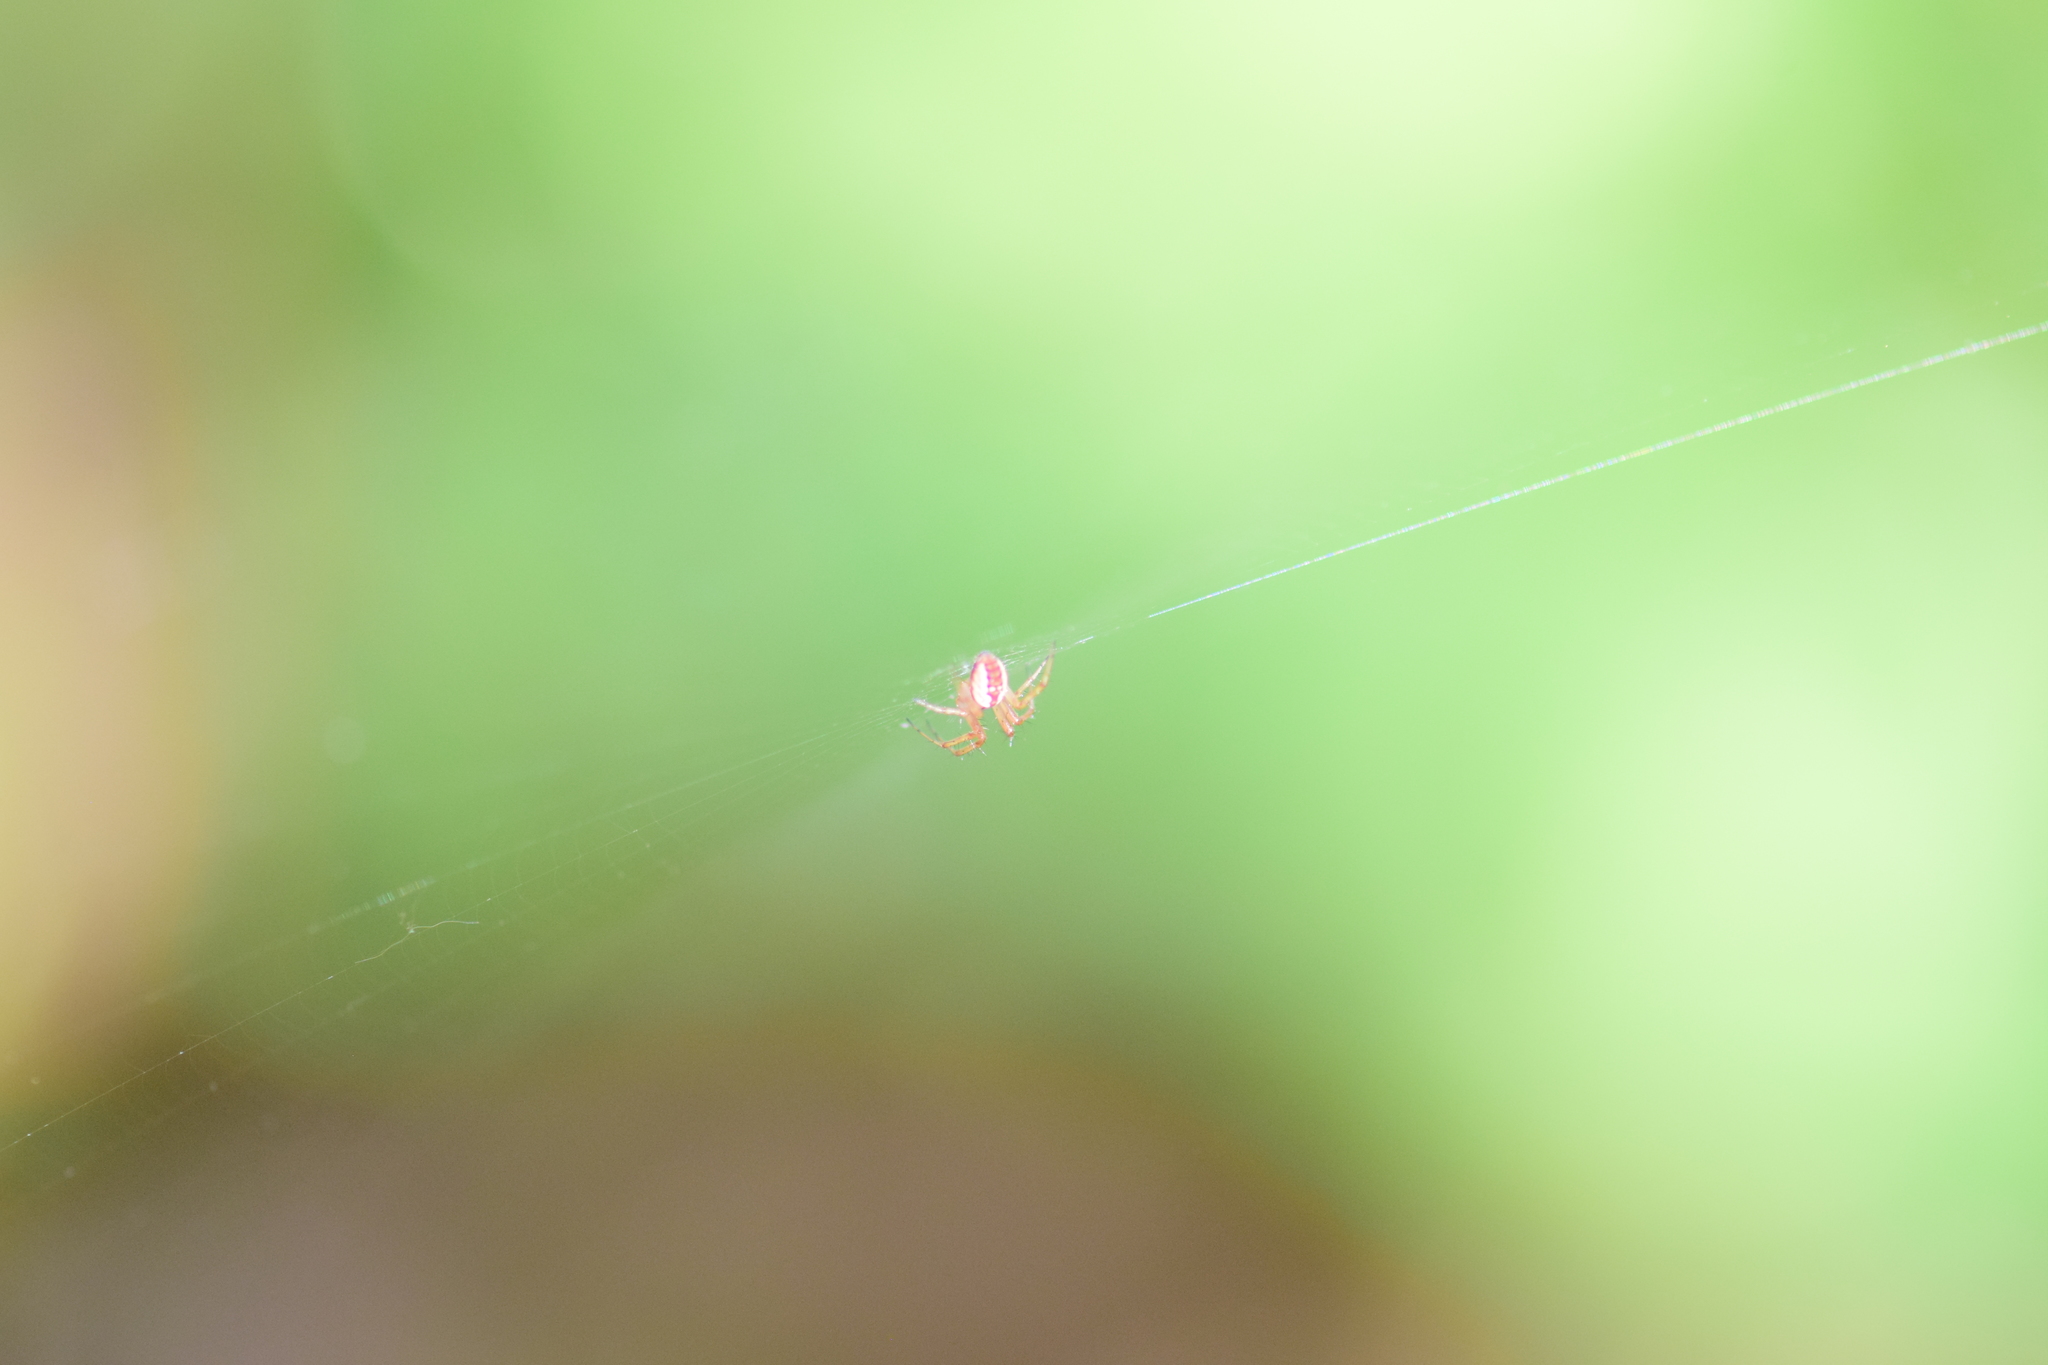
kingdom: Animalia
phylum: Arthropoda
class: Arachnida
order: Araneae
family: Araneidae
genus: Mangora
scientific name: Mangora placida
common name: Tuft-legged orbweaver
